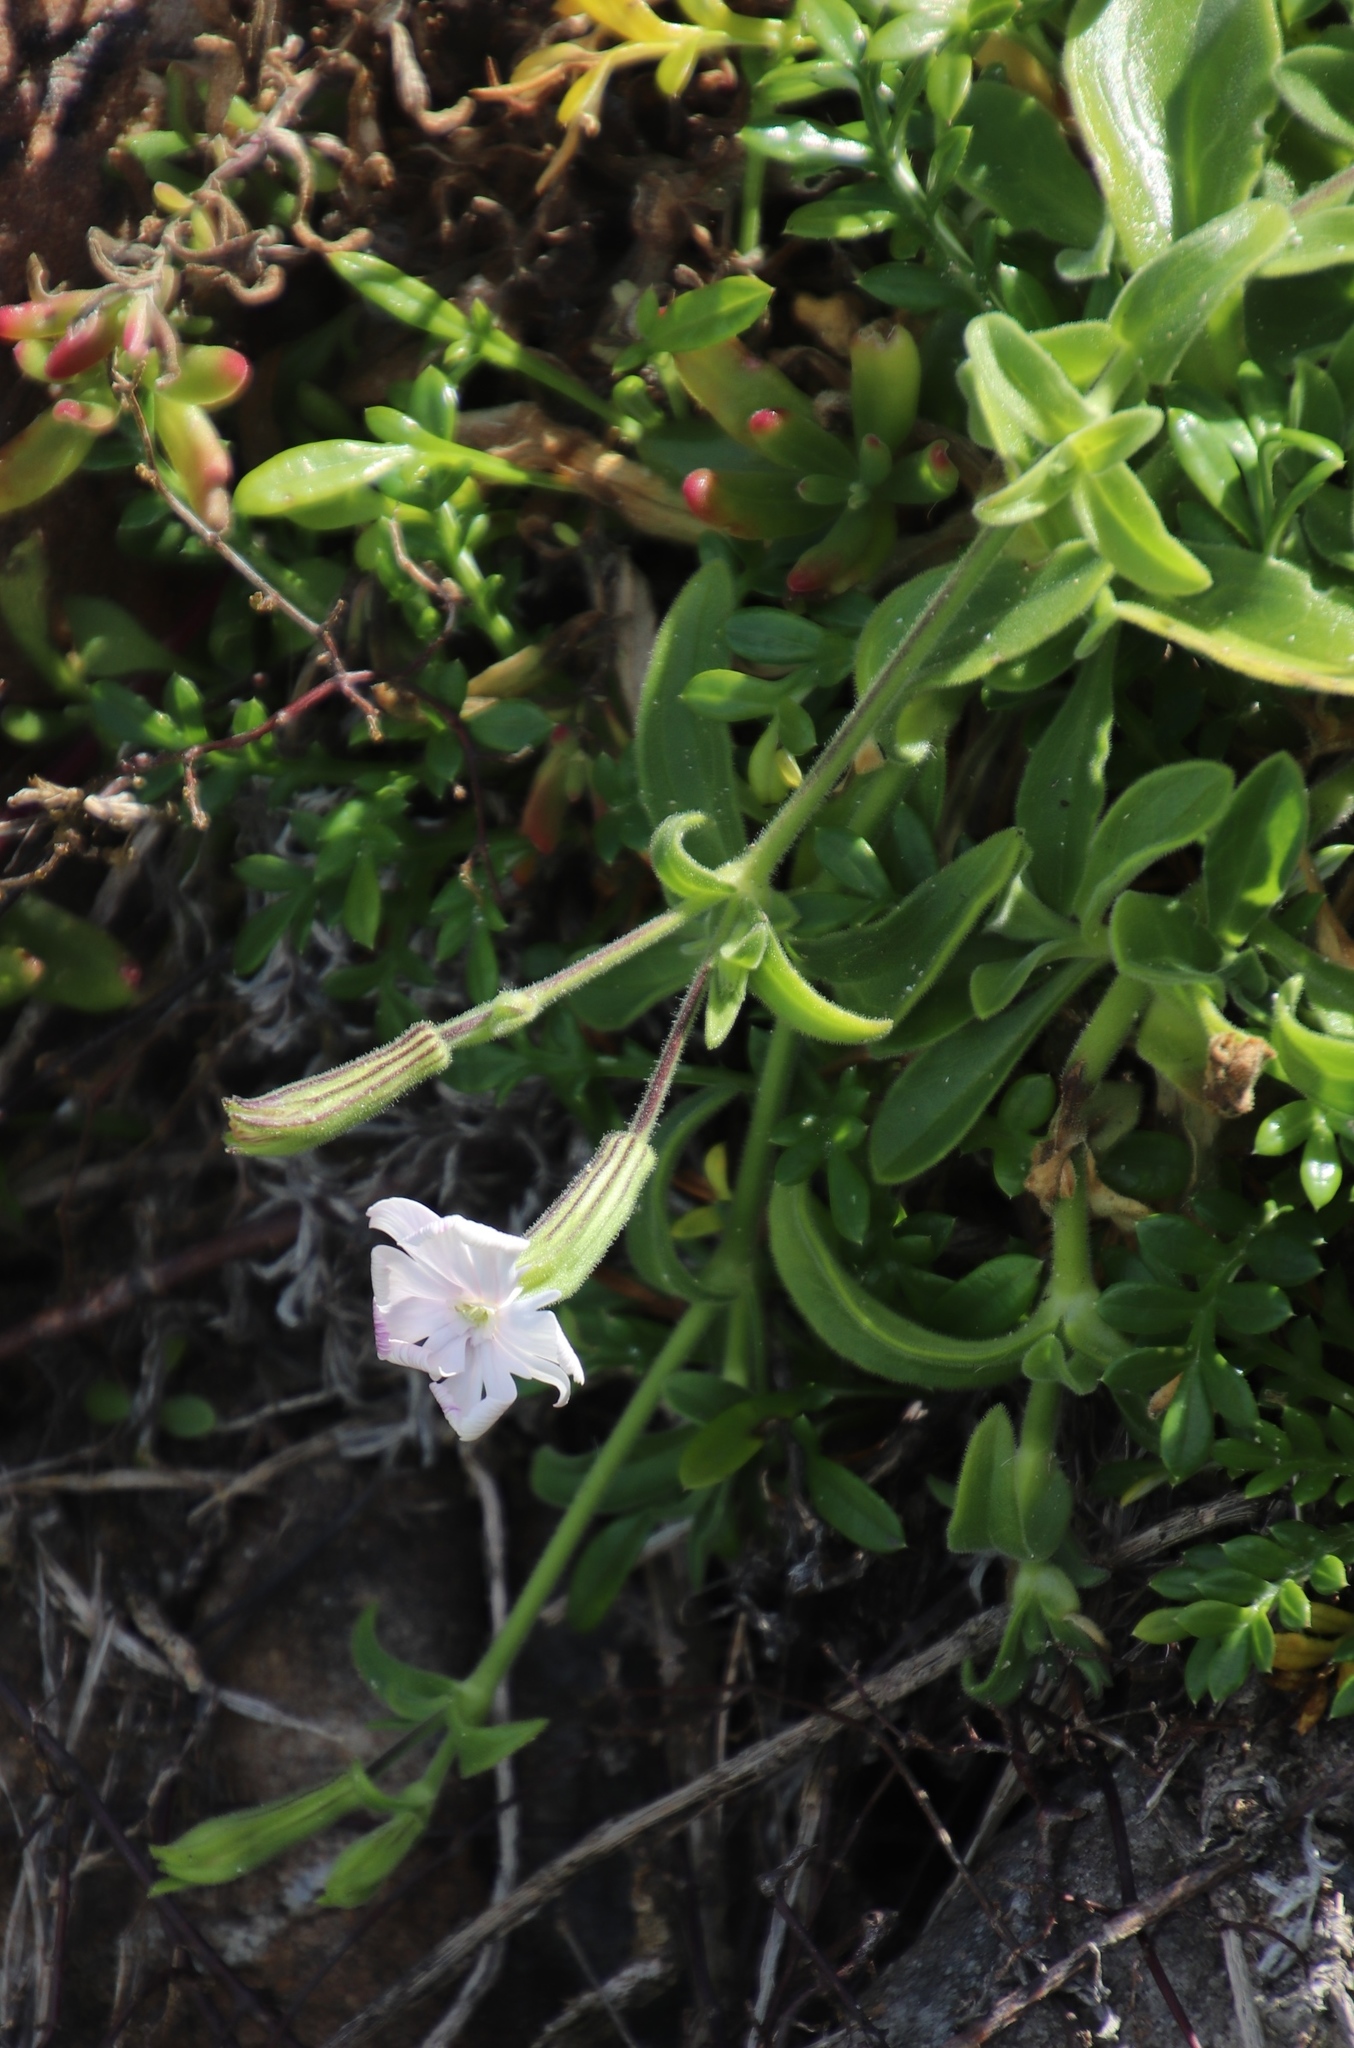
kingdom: Plantae
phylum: Tracheophyta
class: Magnoliopsida
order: Caryophyllales
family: Caryophyllaceae
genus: Silene
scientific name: Silene undulata
